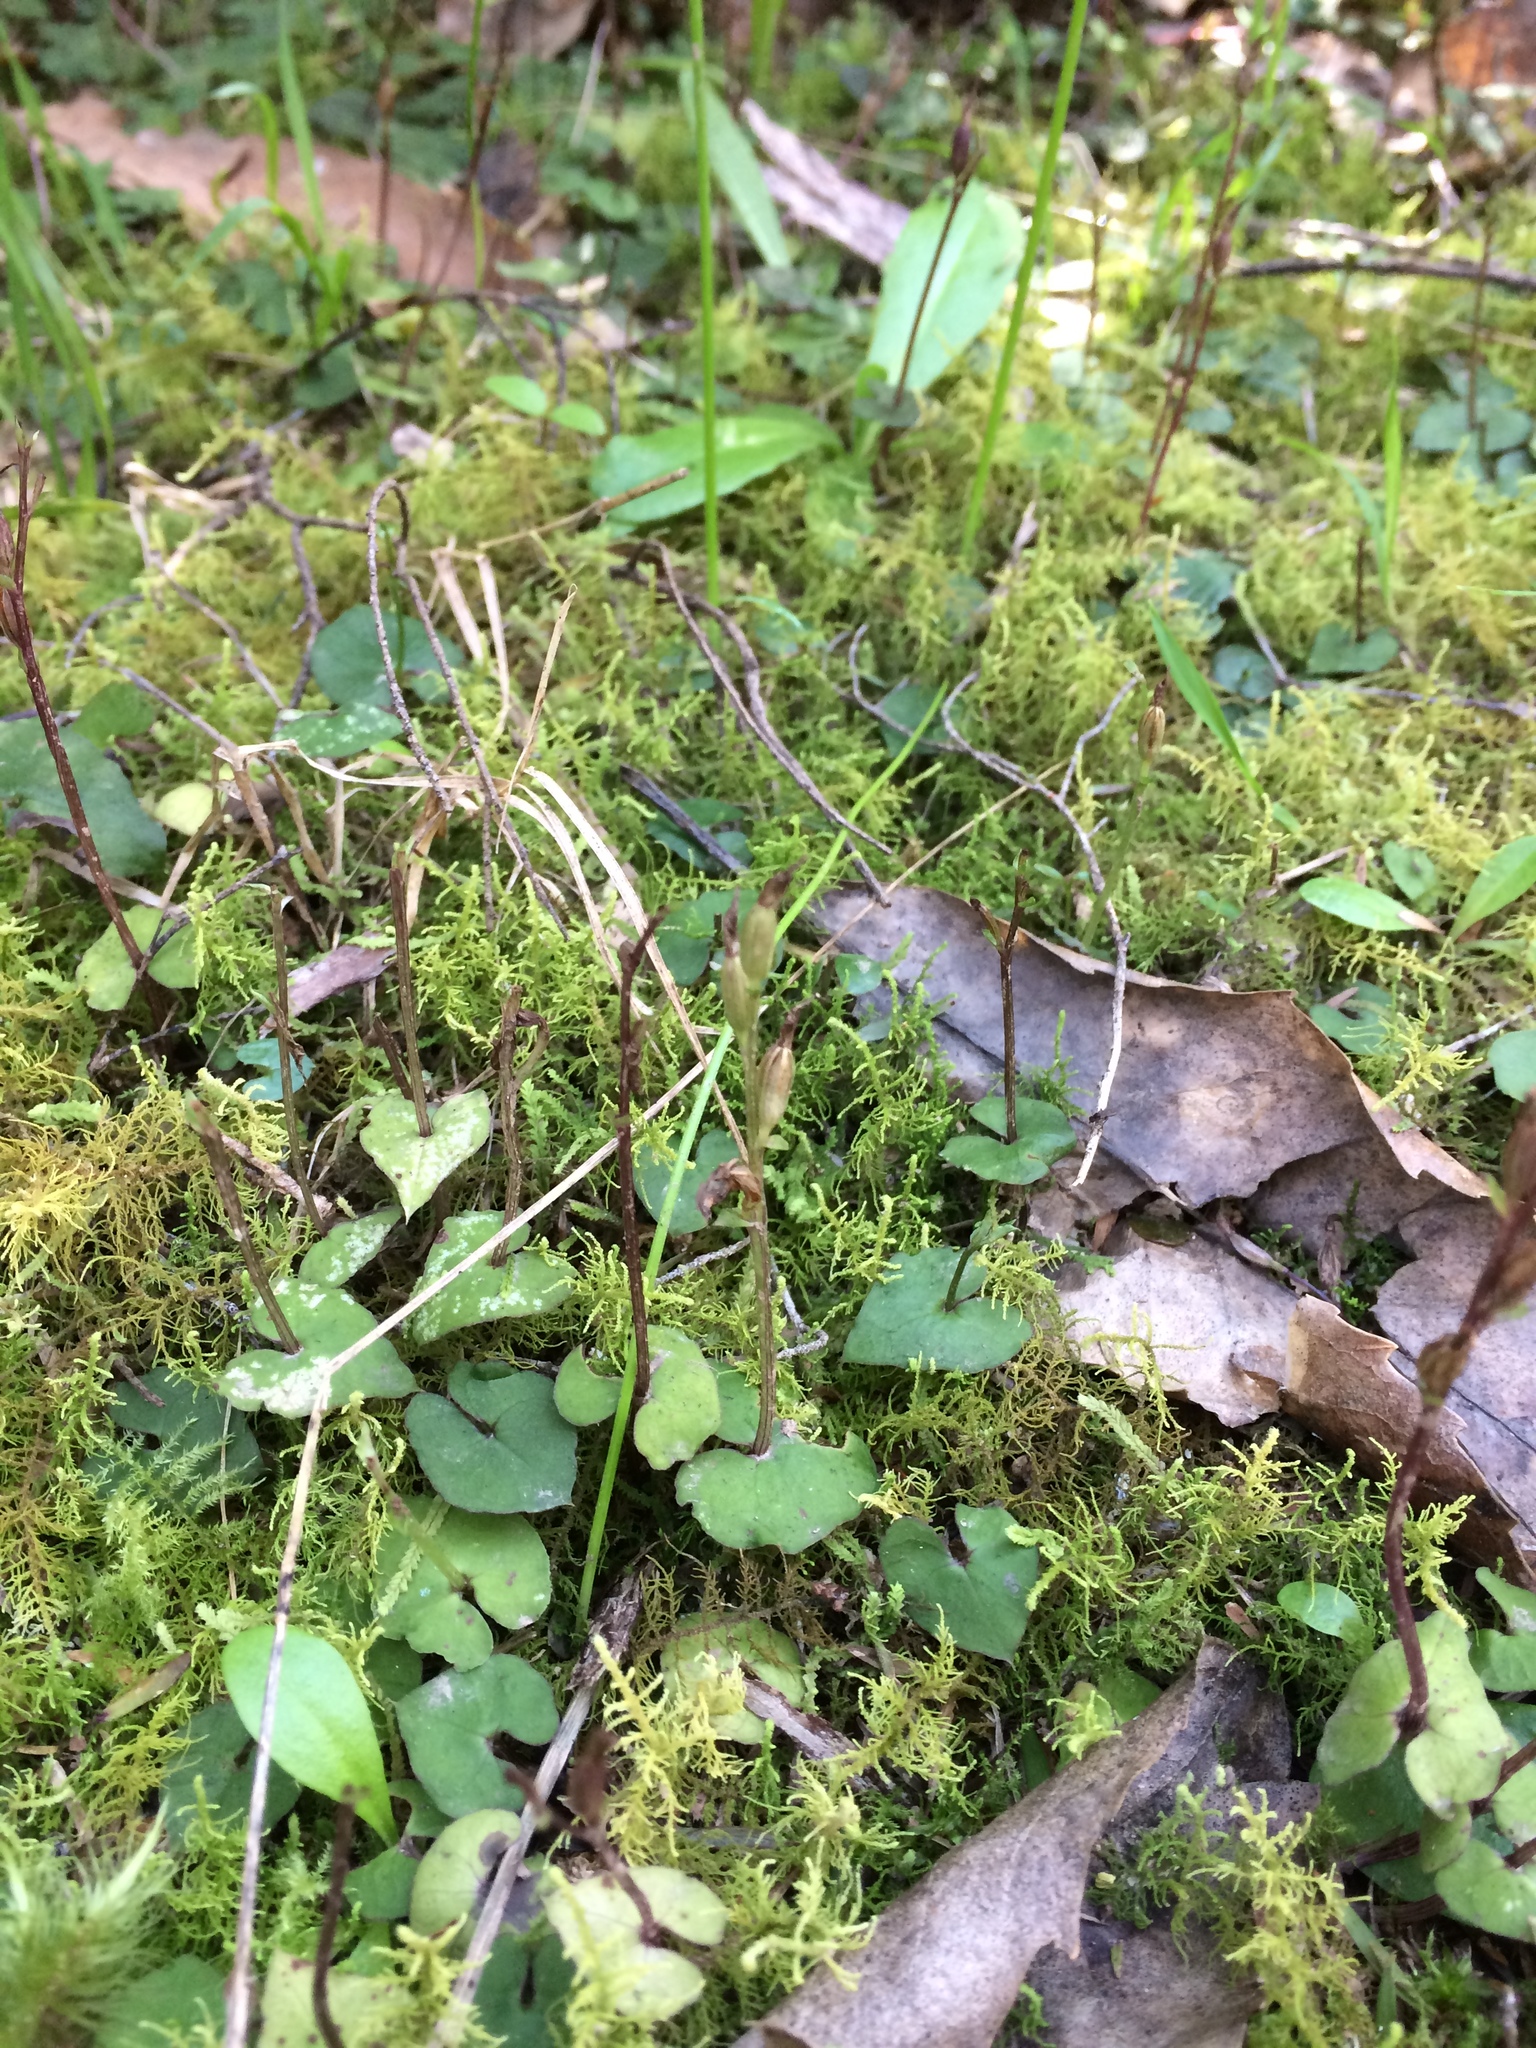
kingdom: Plantae
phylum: Tracheophyta
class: Liliopsida
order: Asparagales
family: Orchidaceae
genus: Acianthus
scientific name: Acianthus sinclairii
